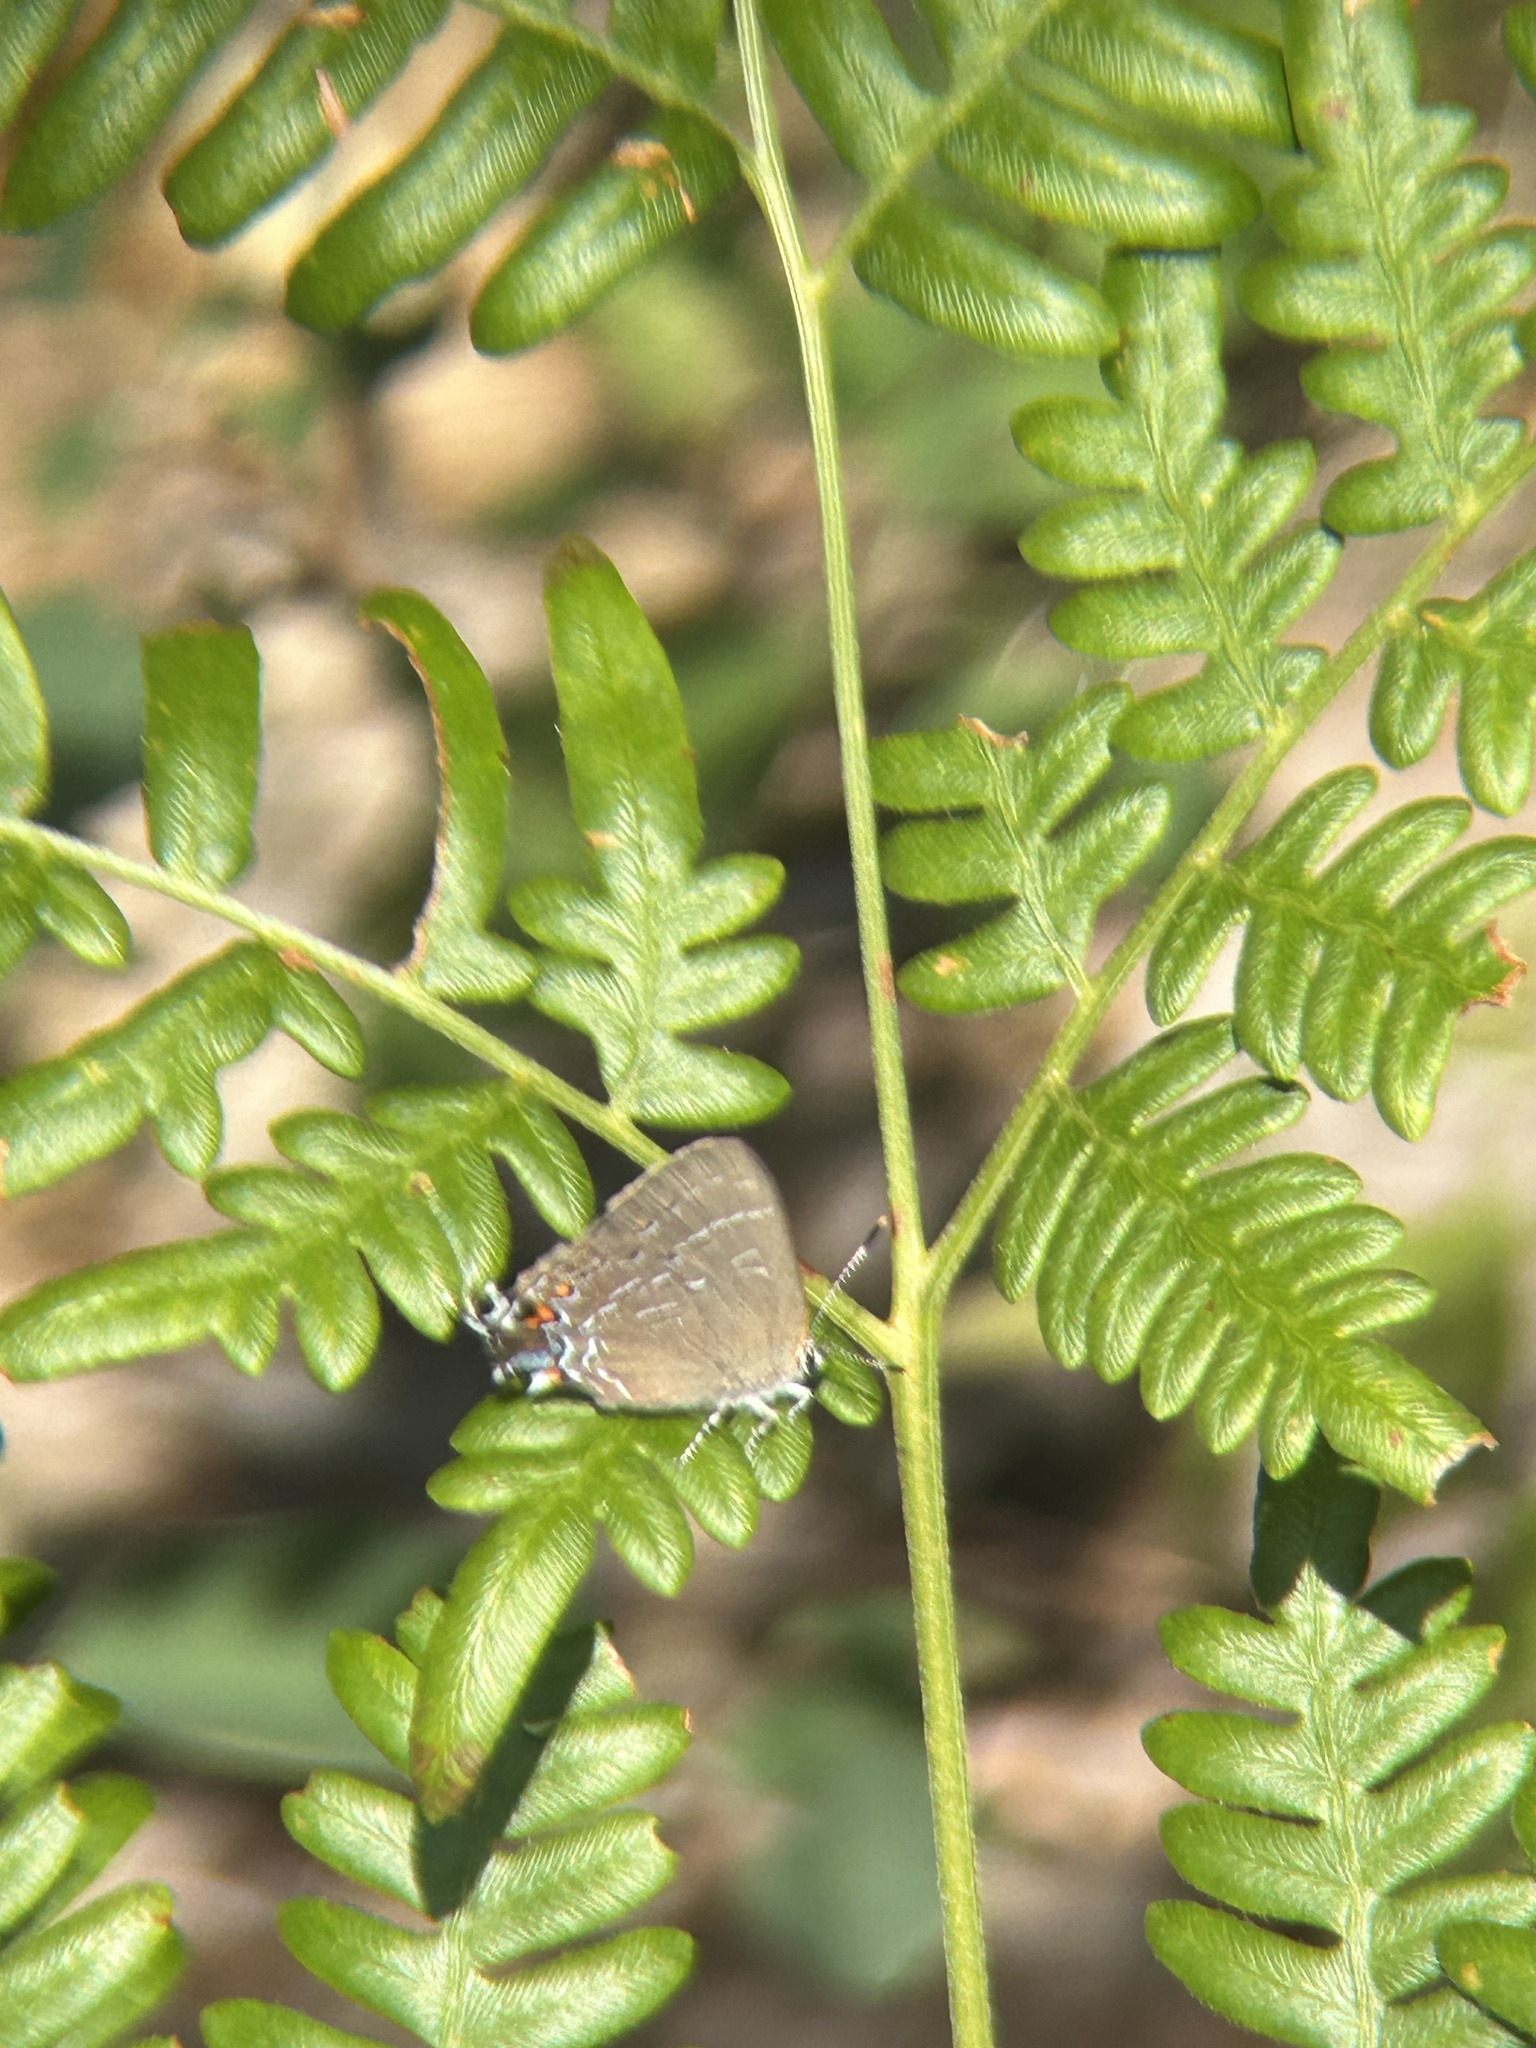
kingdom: Animalia
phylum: Arthropoda
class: Insecta
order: Lepidoptera
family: Lycaenidae
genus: Satyrium
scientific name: Satyrium calanus
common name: Banded hairstreak
